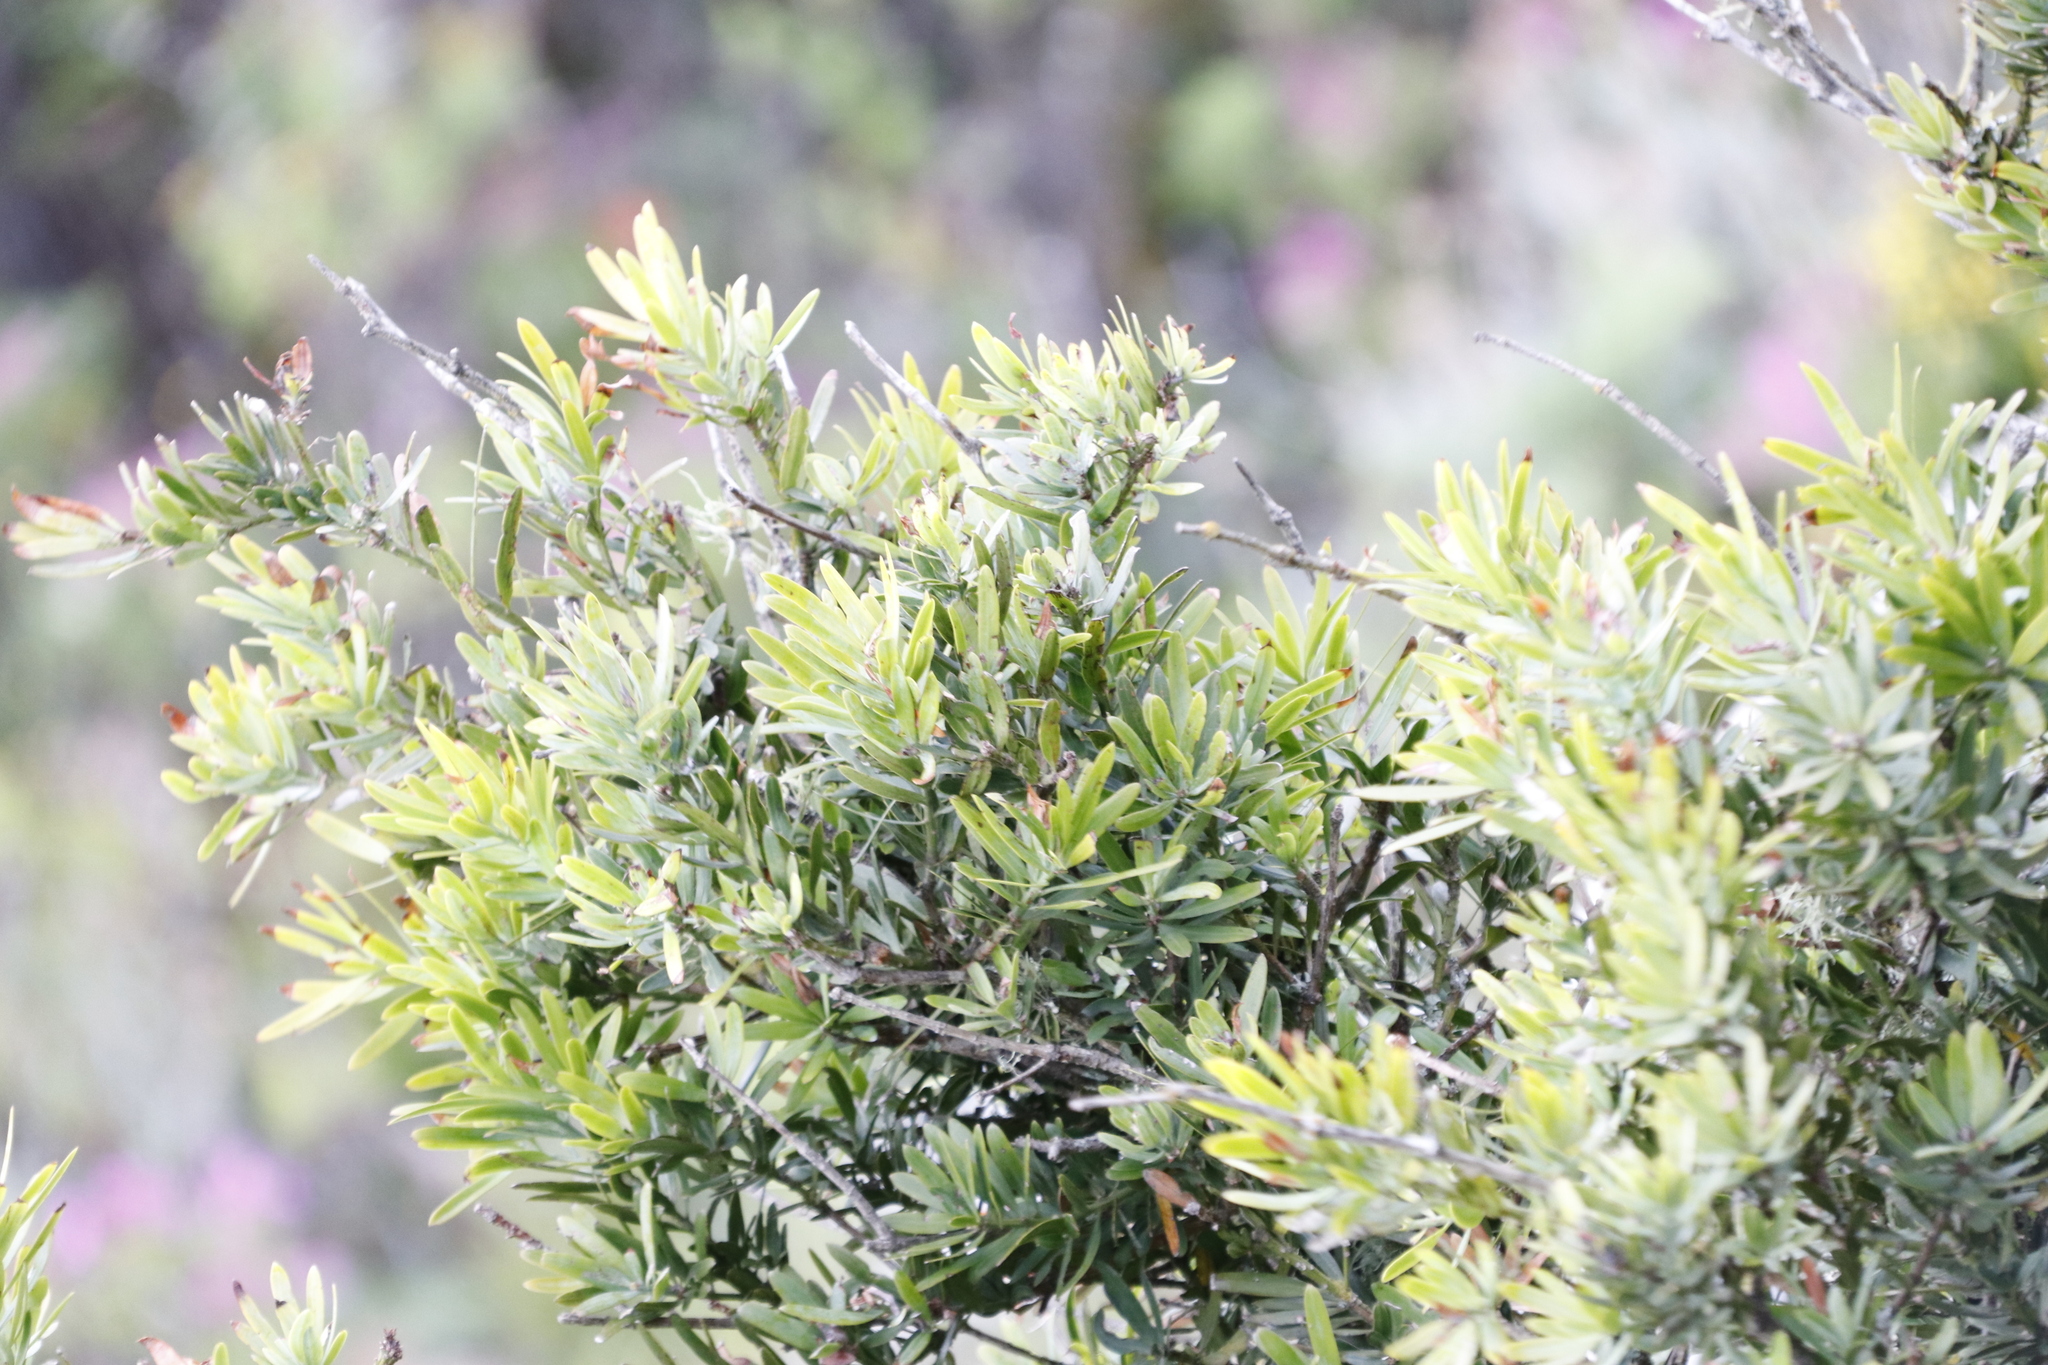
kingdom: Plantae
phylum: Tracheophyta
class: Pinopsida
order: Pinales
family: Podocarpaceae
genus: Podocarpus
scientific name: Podocarpus latifolius
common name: True yellowwood
